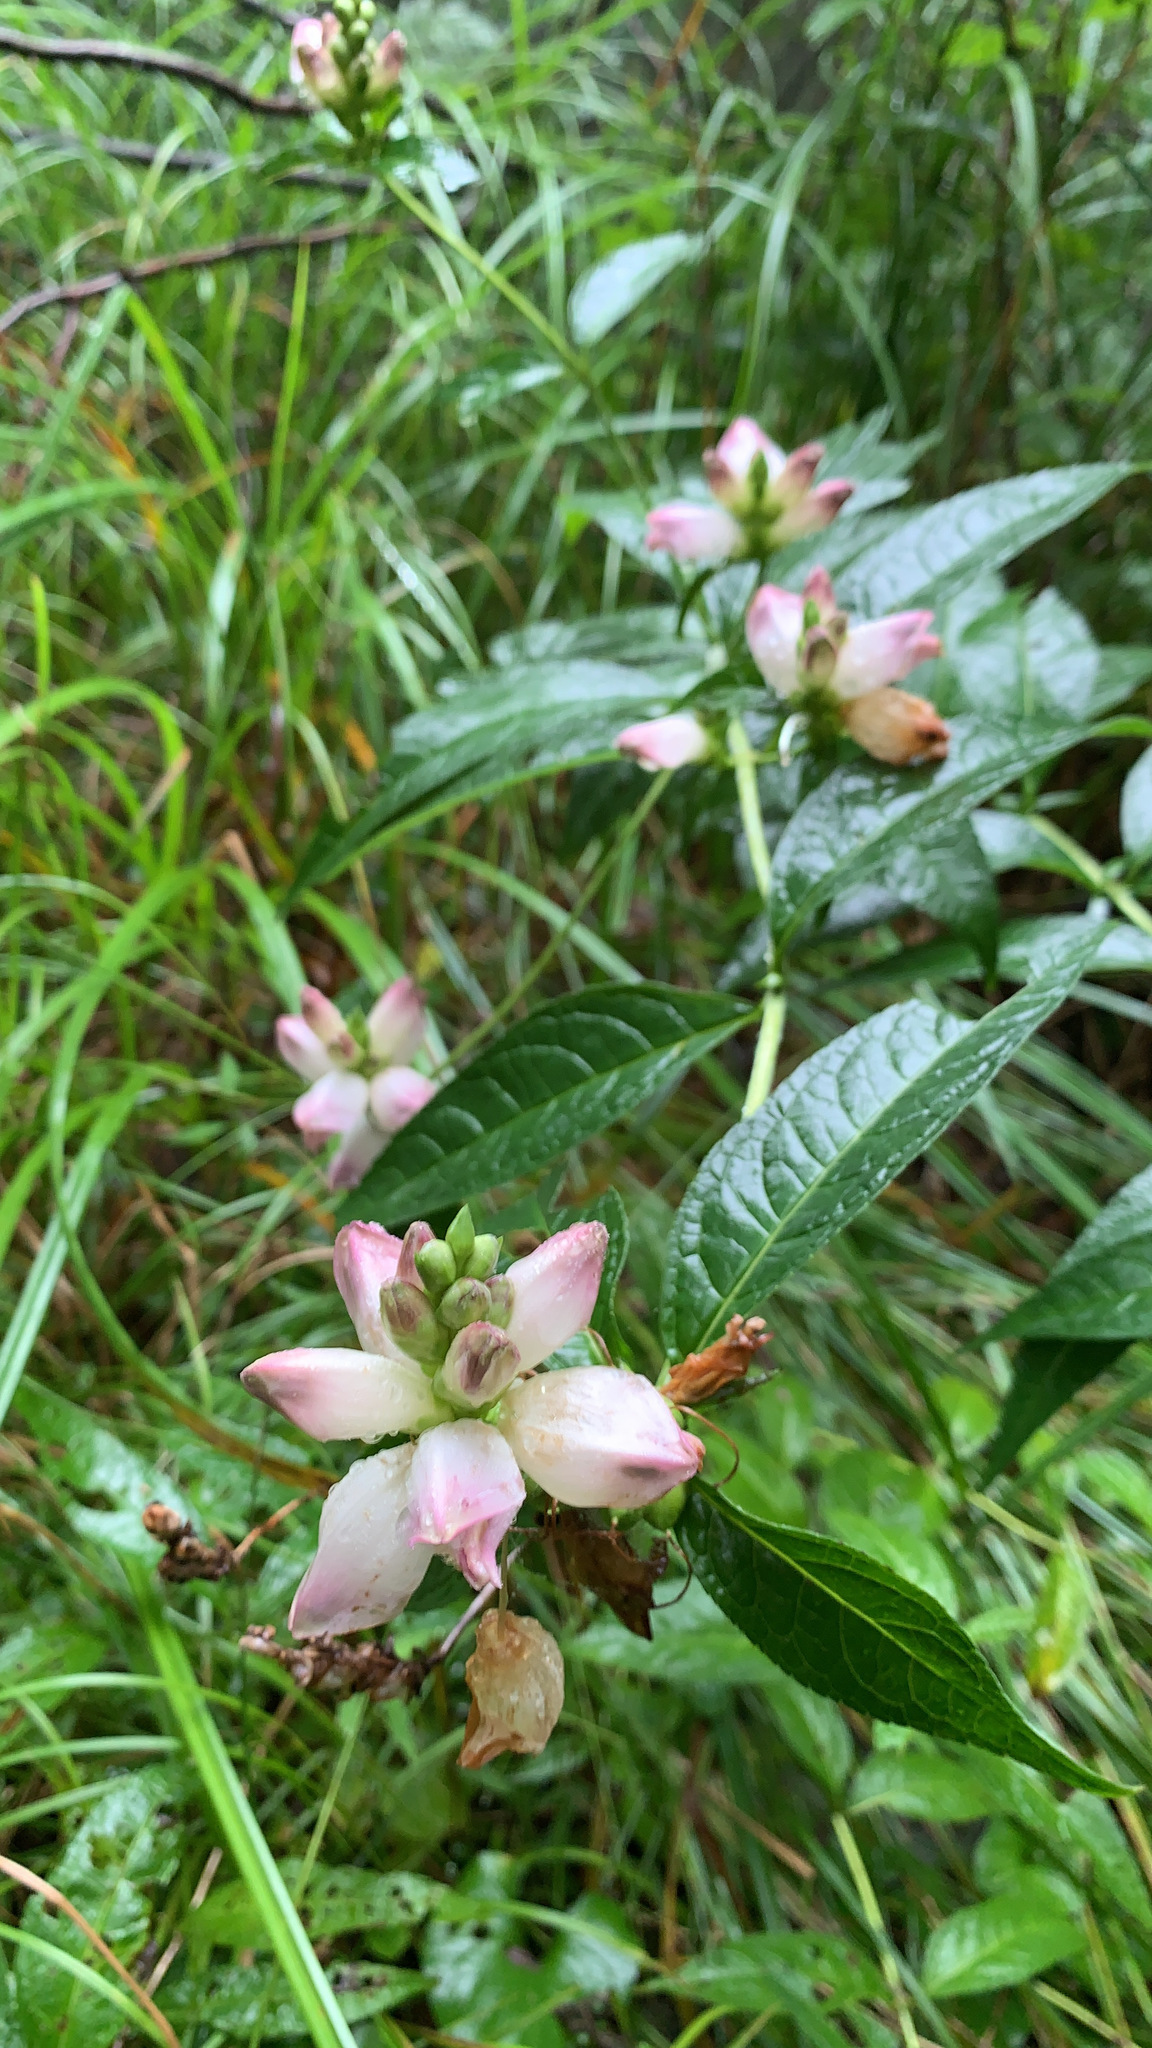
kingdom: Plantae
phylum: Tracheophyta
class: Magnoliopsida
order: Lamiales
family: Plantaginaceae
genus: Chelone
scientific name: Chelone glabra
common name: Snakehead
